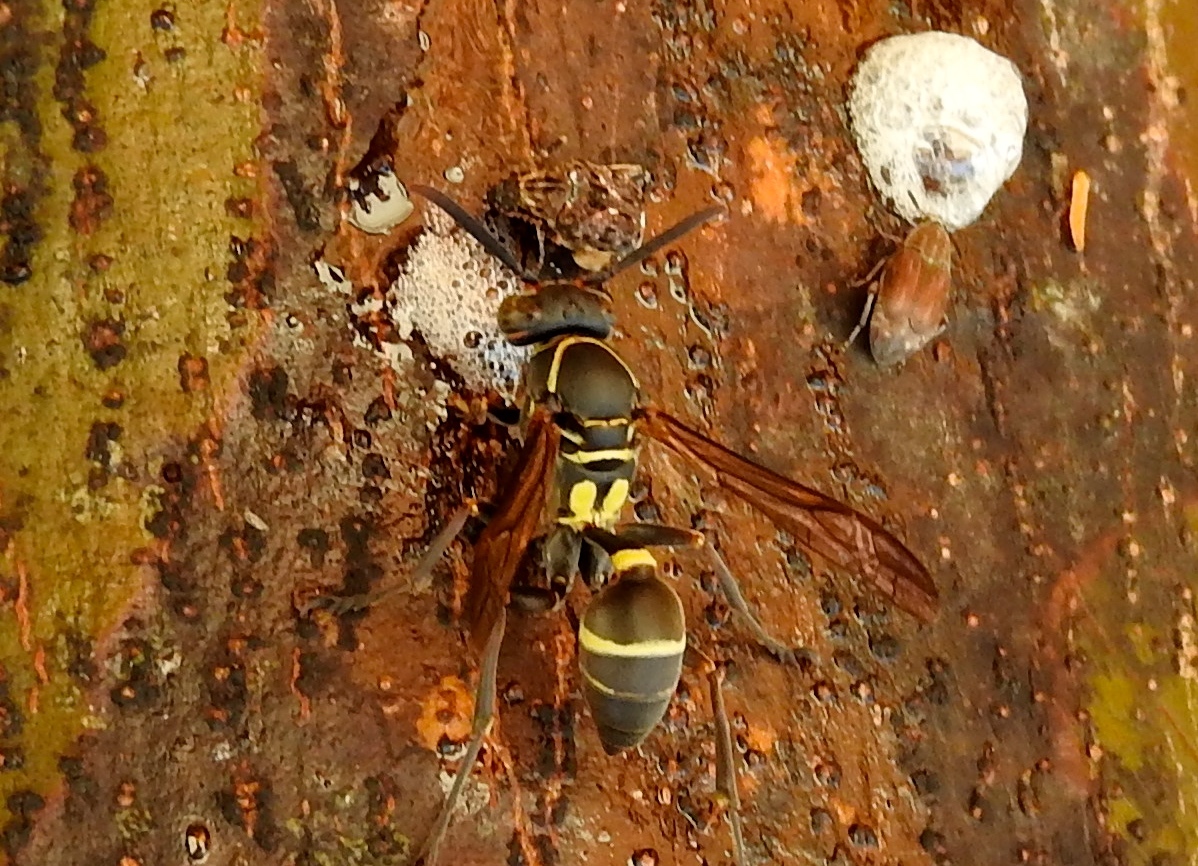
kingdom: Animalia
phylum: Arthropoda
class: Insecta
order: Hymenoptera
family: Vespidae
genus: Mischocyttarus
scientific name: Mischocyttarus
